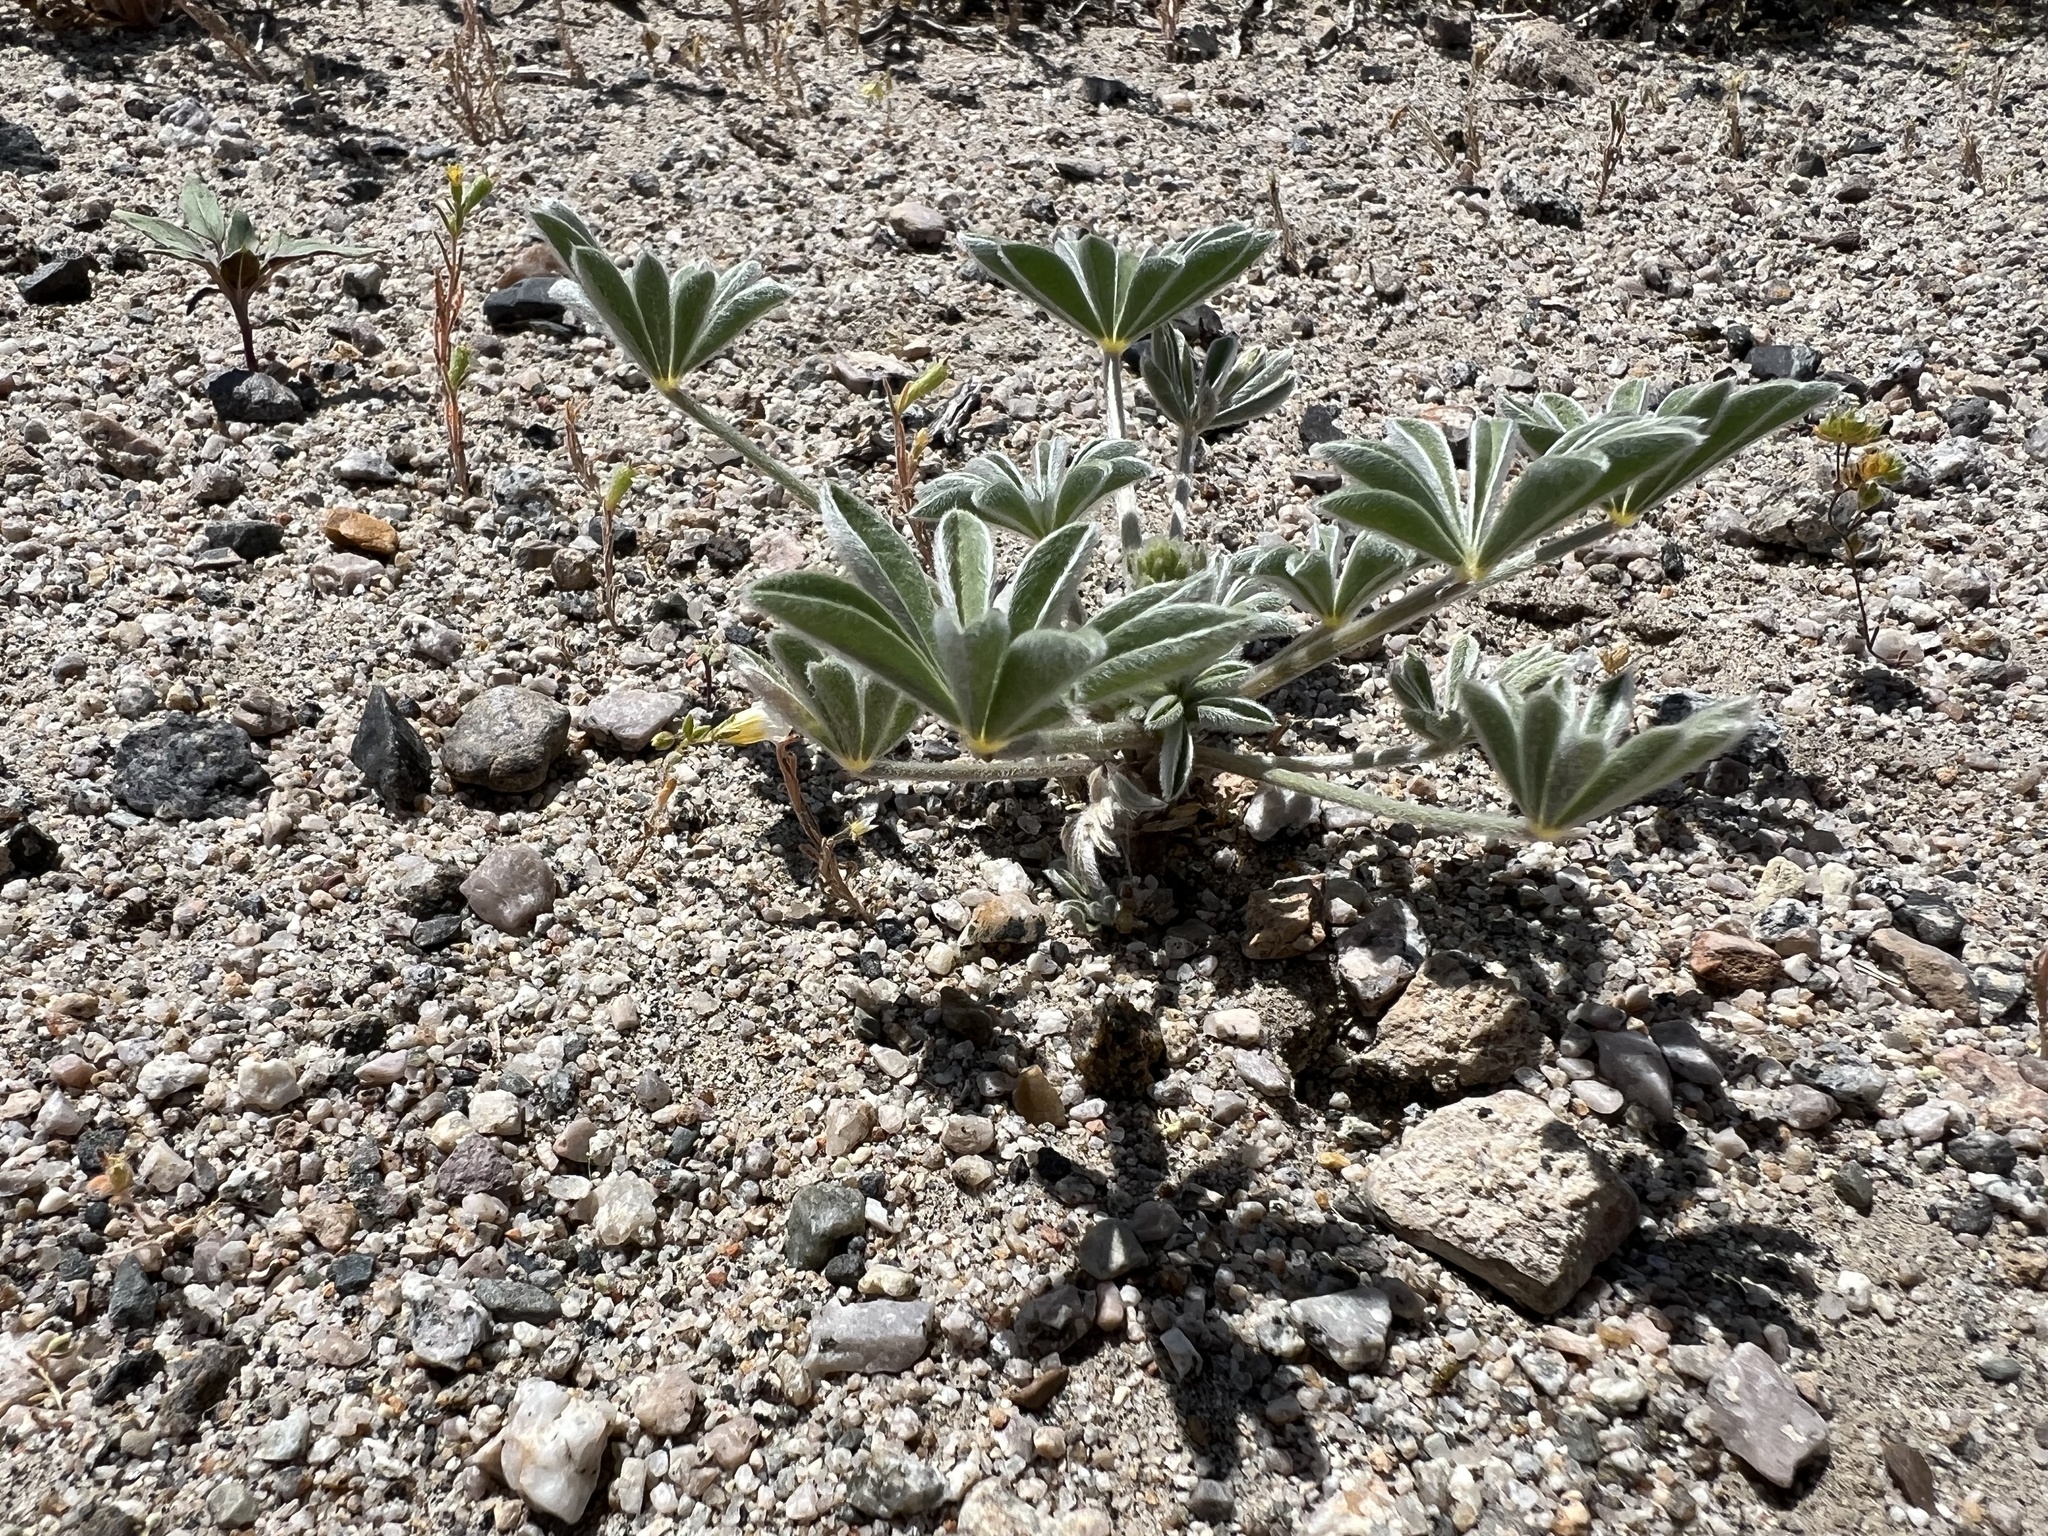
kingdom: Plantae
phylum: Tracheophyta
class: Magnoliopsida
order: Fabales
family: Fabaceae
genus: Lupinus
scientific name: Lupinus shockleyi
